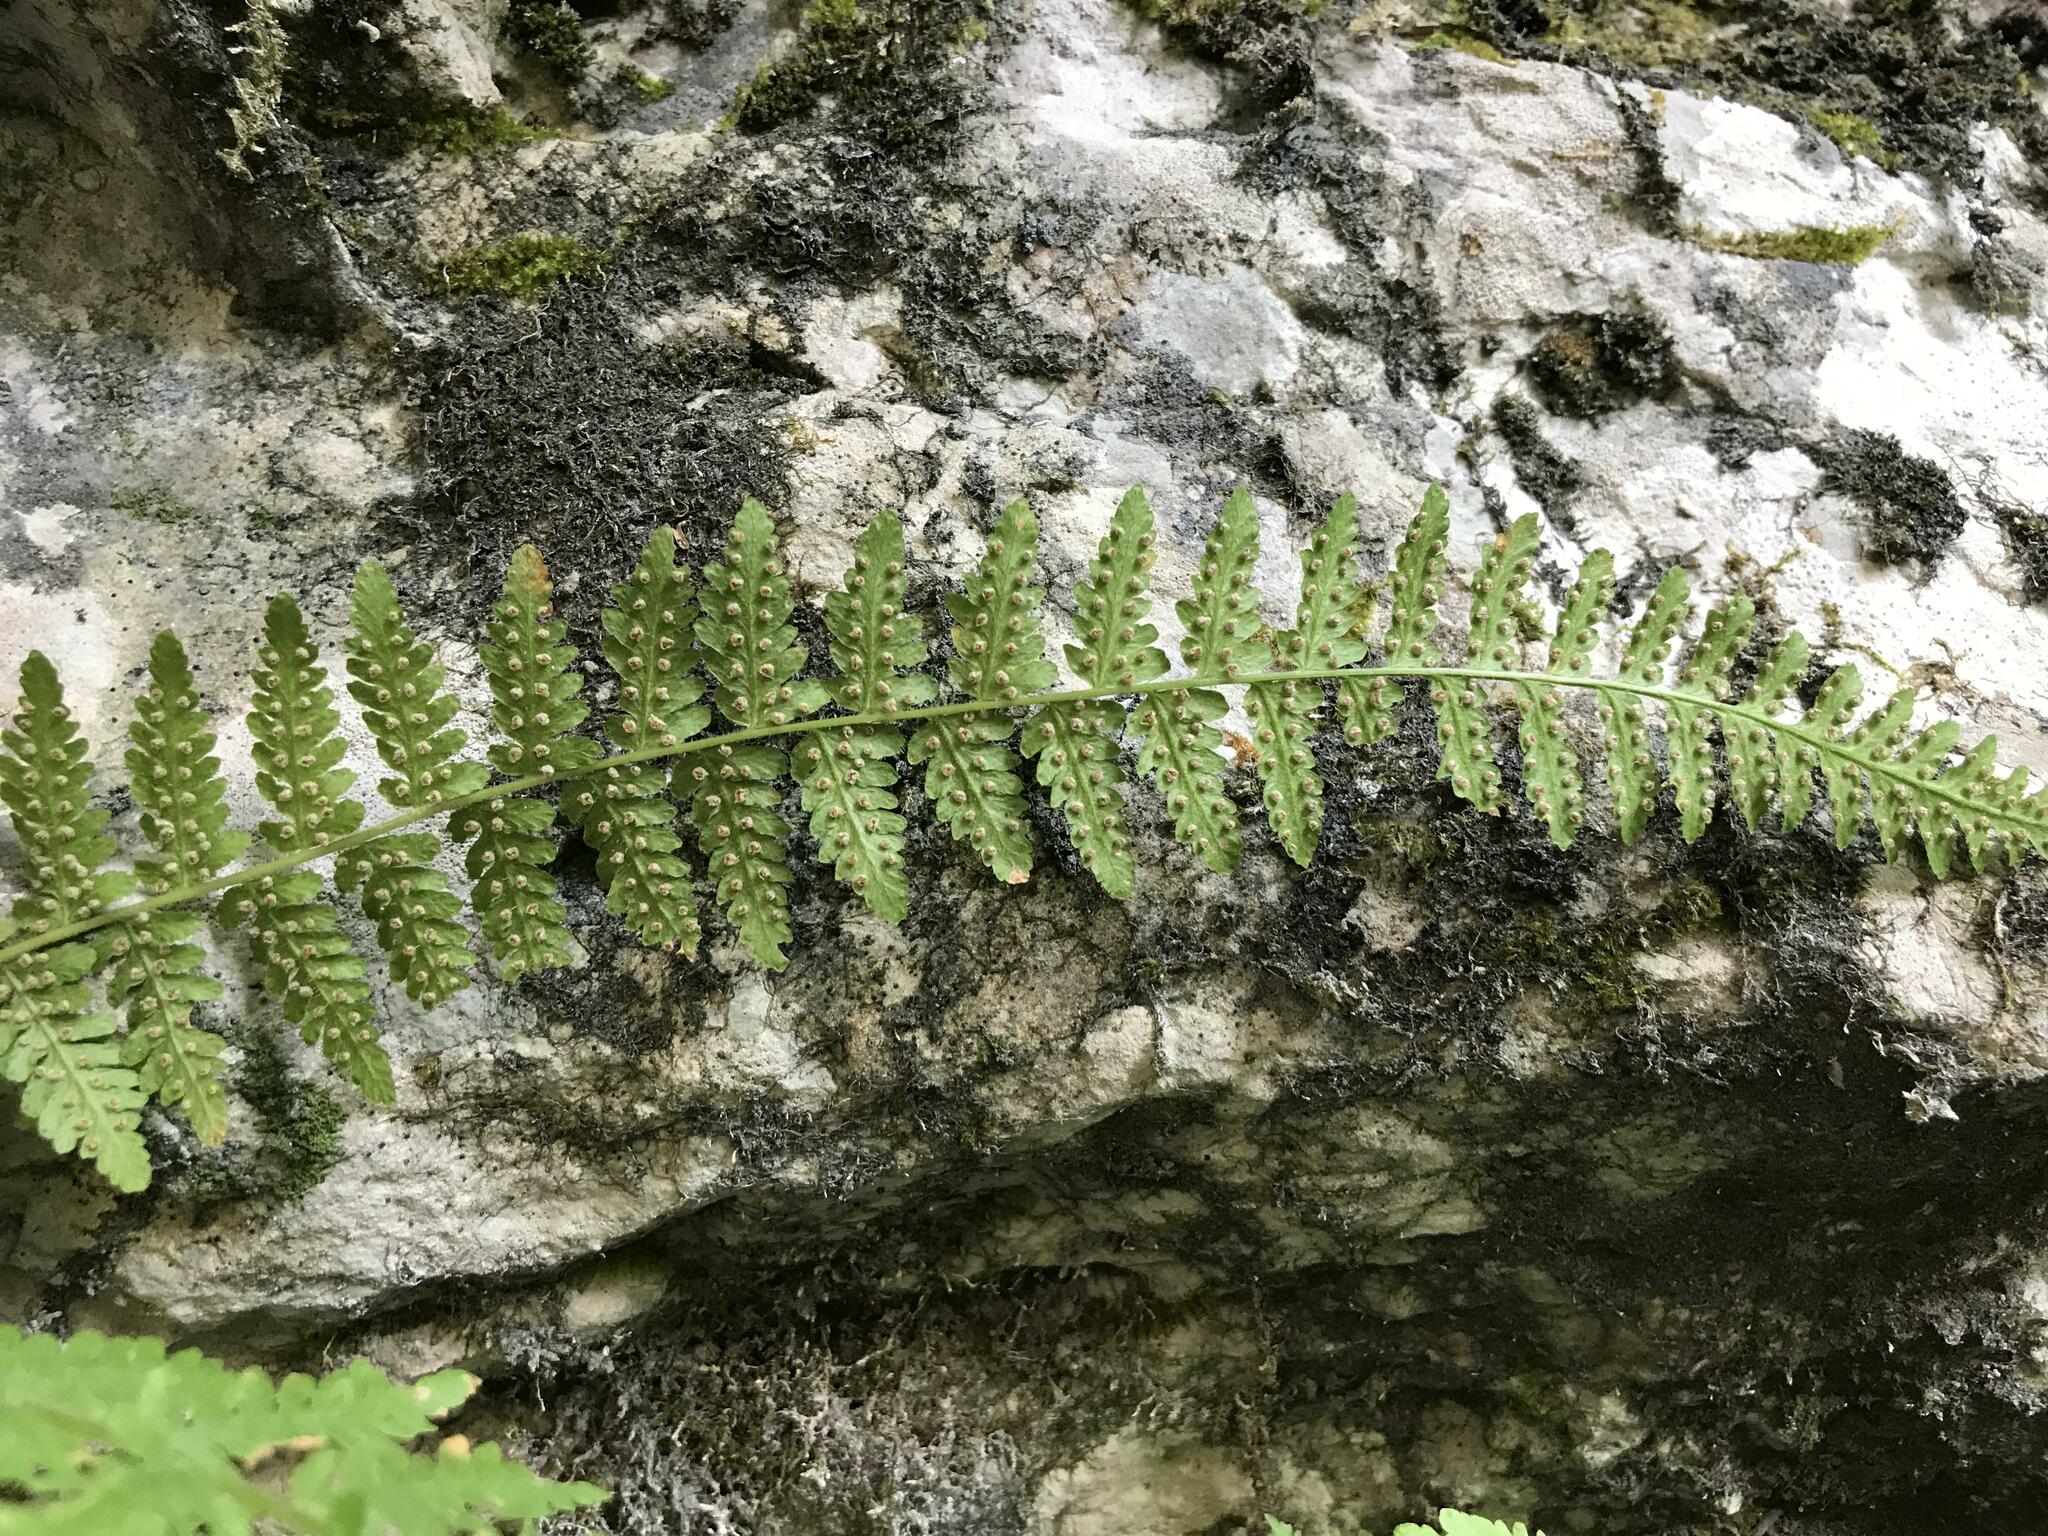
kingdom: Plantae
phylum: Tracheophyta
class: Polypodiopsida
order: Polypodiales
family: Woodsiaceae
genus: Physematium
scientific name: Physematium fragile
